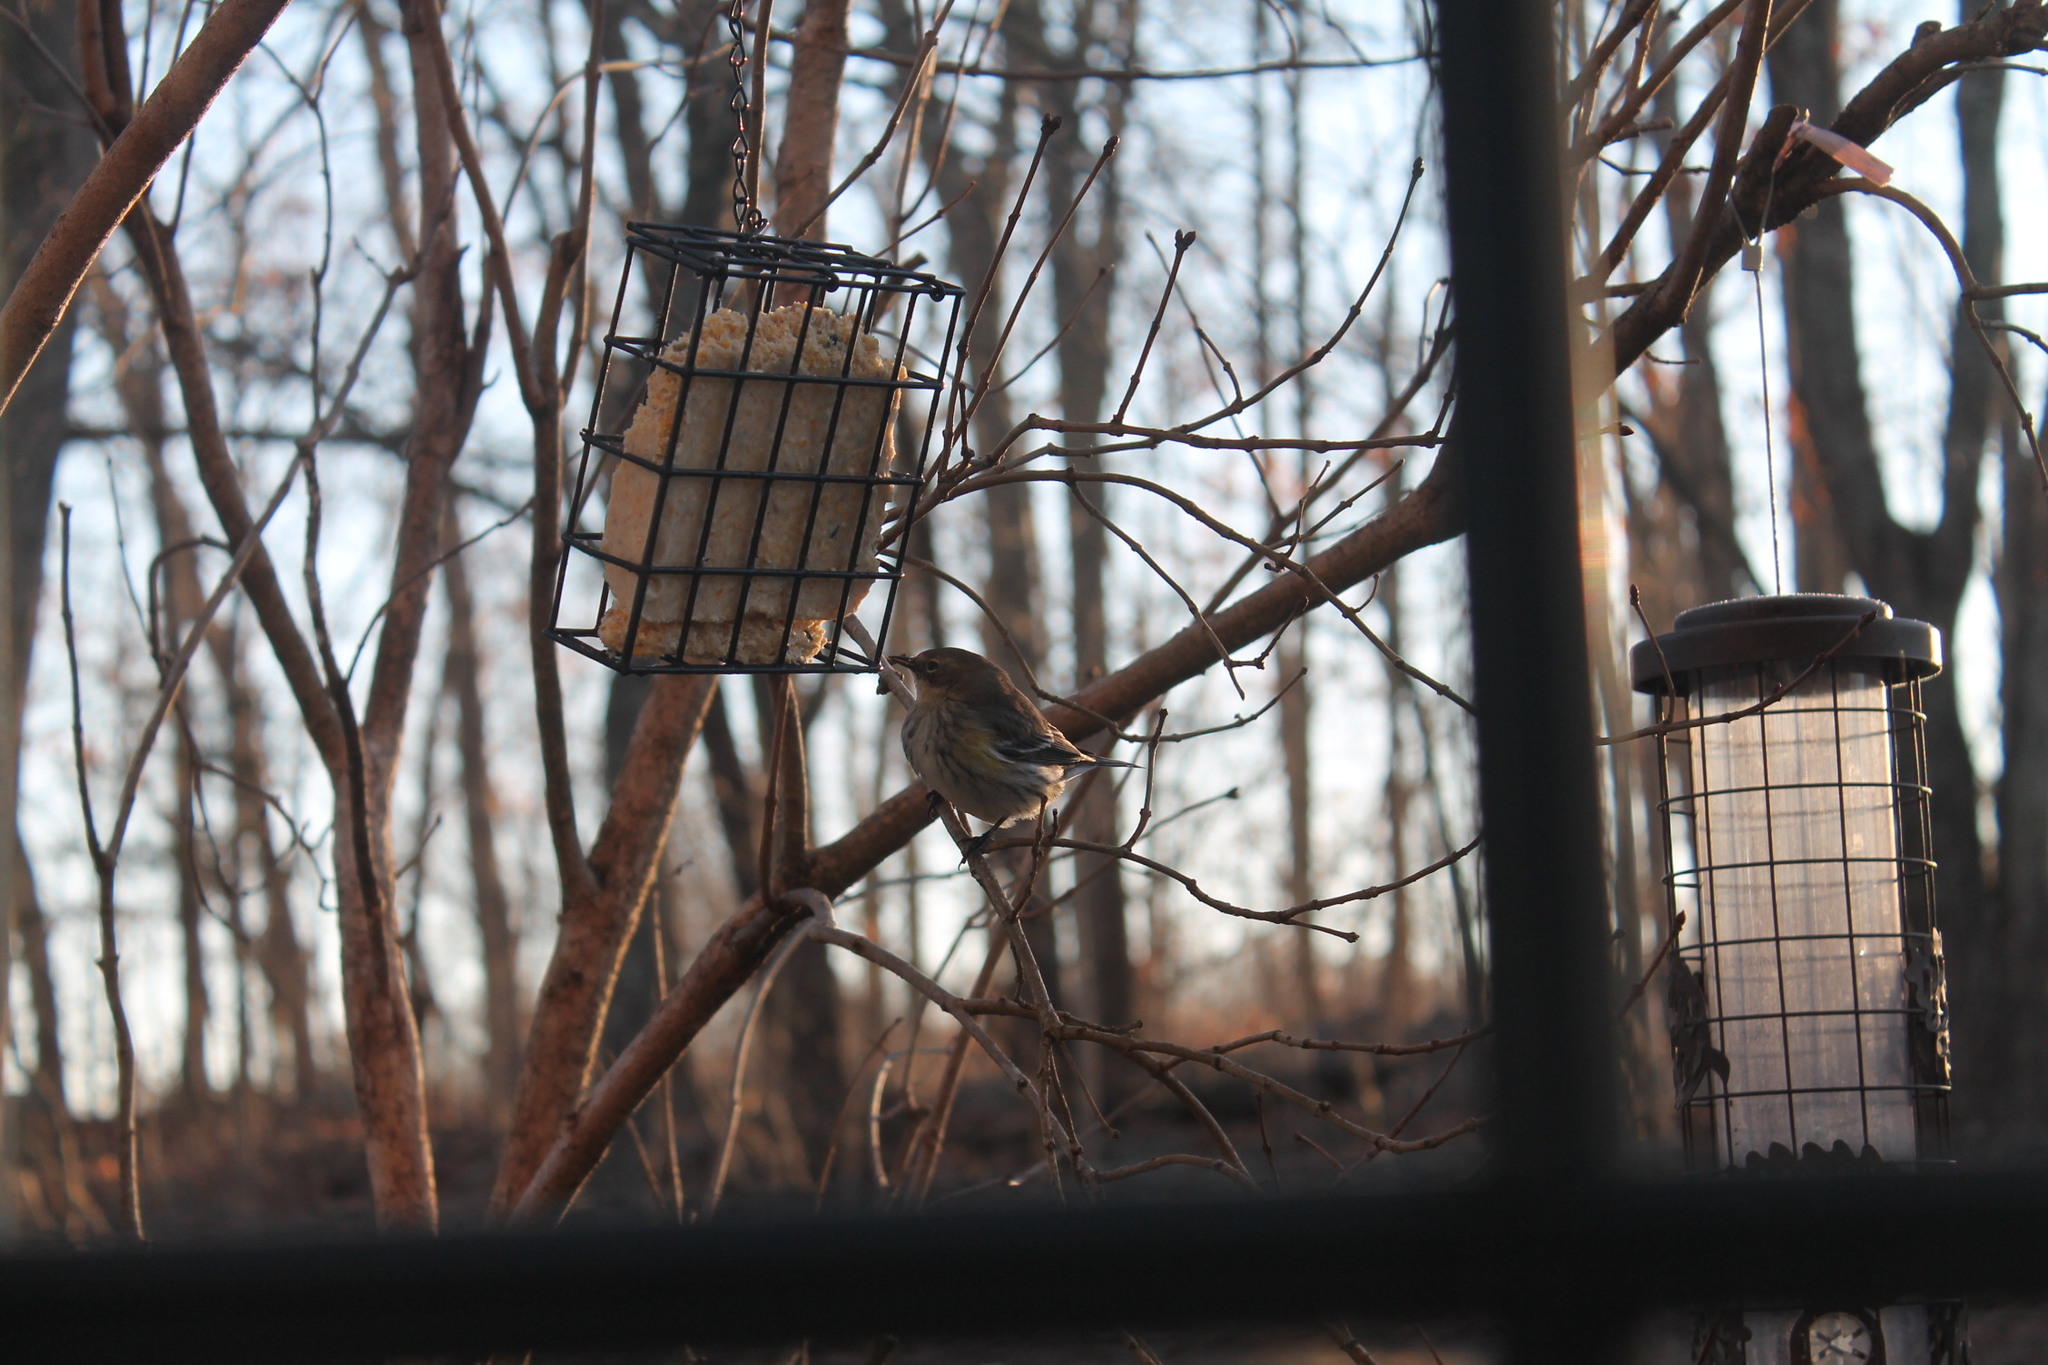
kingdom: Animalia
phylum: Chordata
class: Aves
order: Passeriformes
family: Parulidae
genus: Setophaga
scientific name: Setophaga coronata
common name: Myrtle warbler
